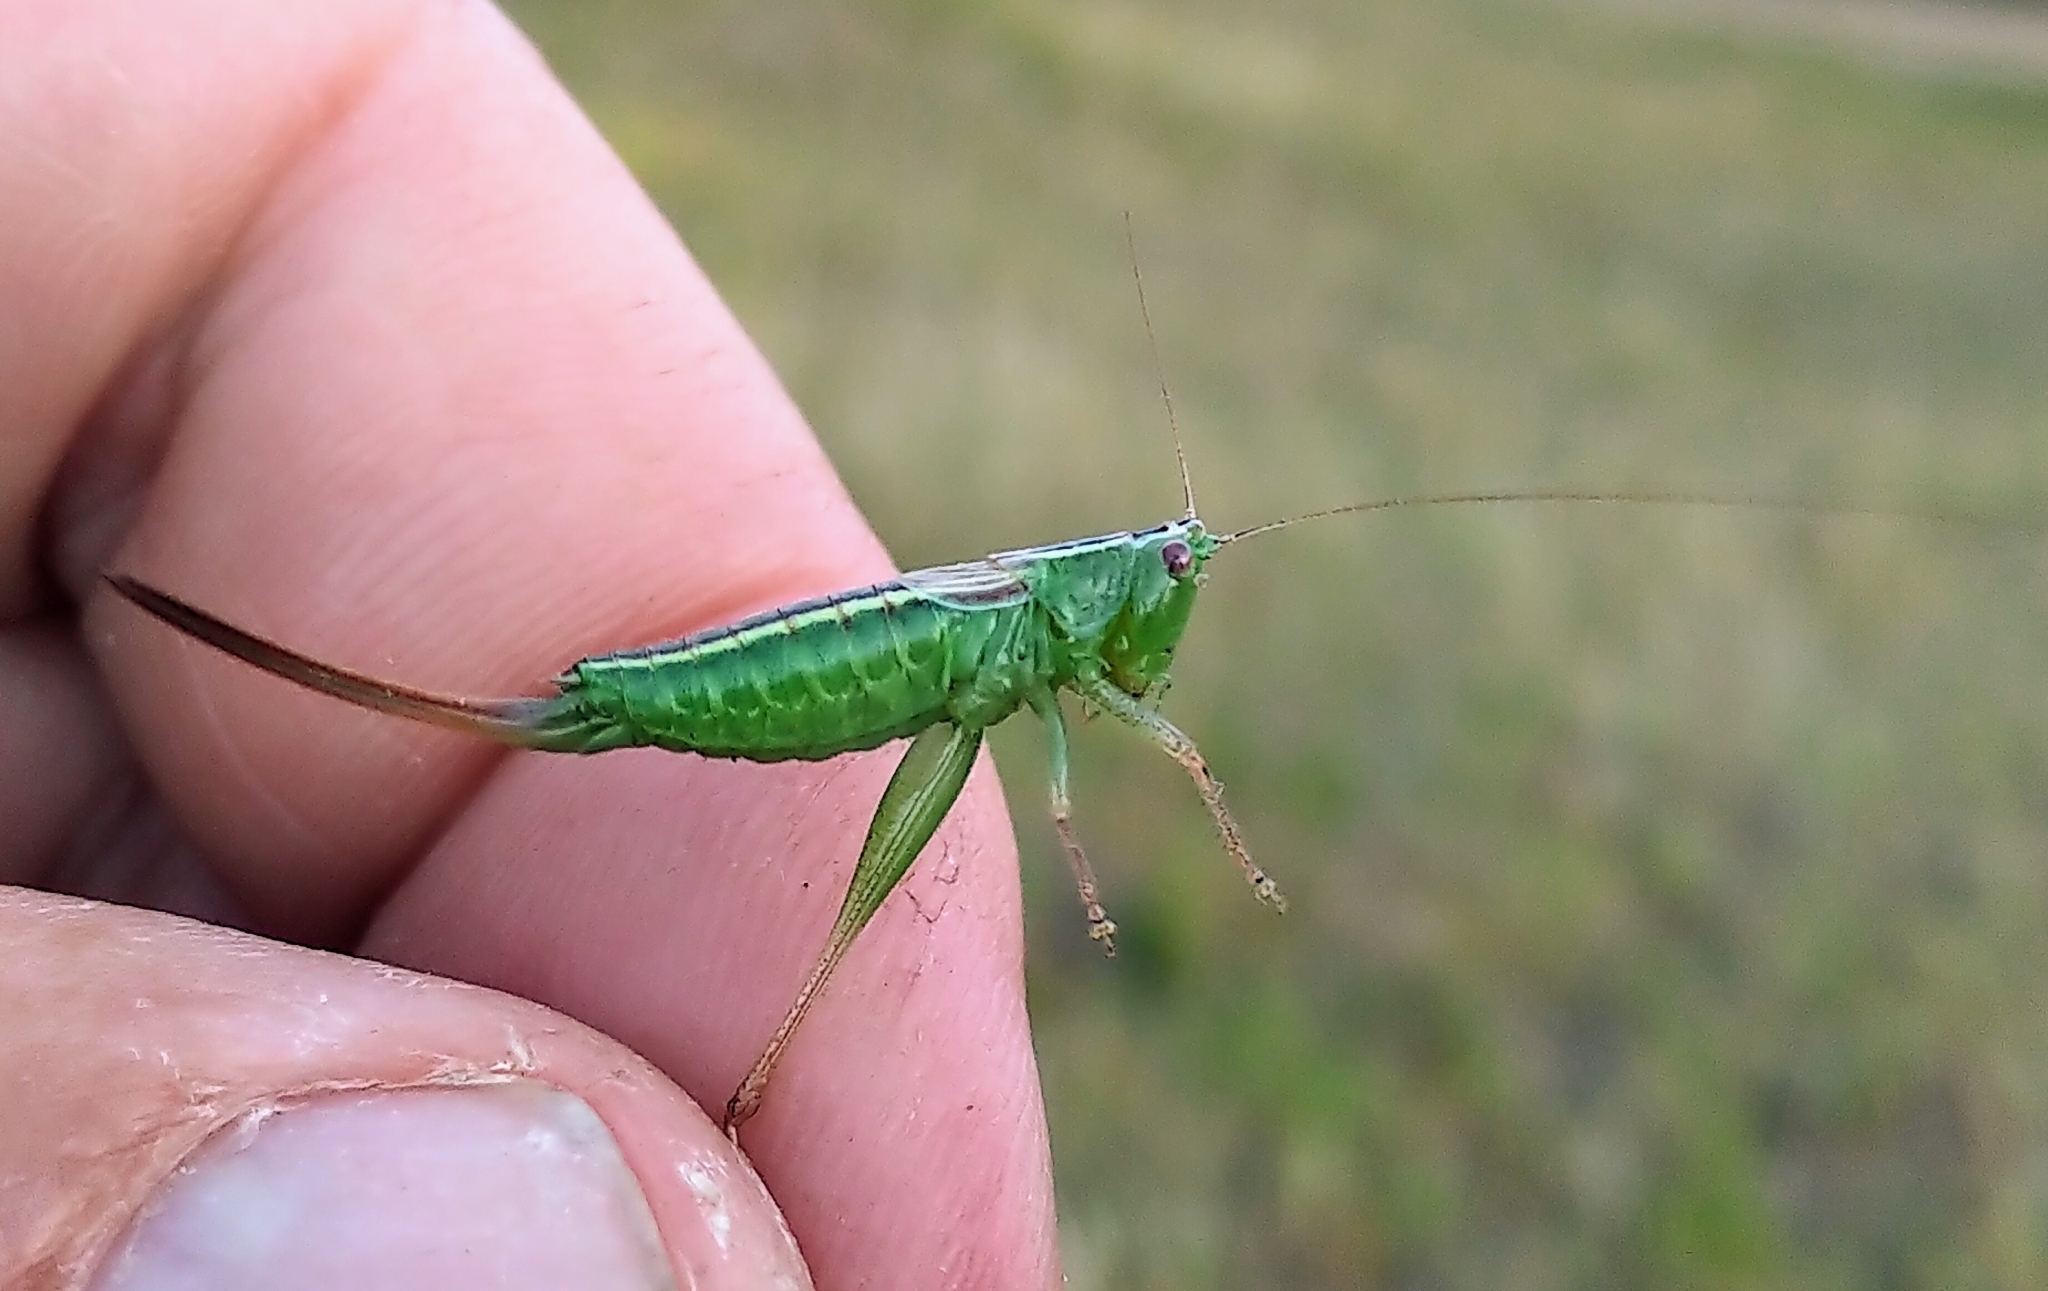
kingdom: Animalia
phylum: Arthropoda
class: Insecta
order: Orthoptera
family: Tettigoniidae
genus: Conocephalus
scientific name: Conocephalus saltans
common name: Prairie meadow katydid
